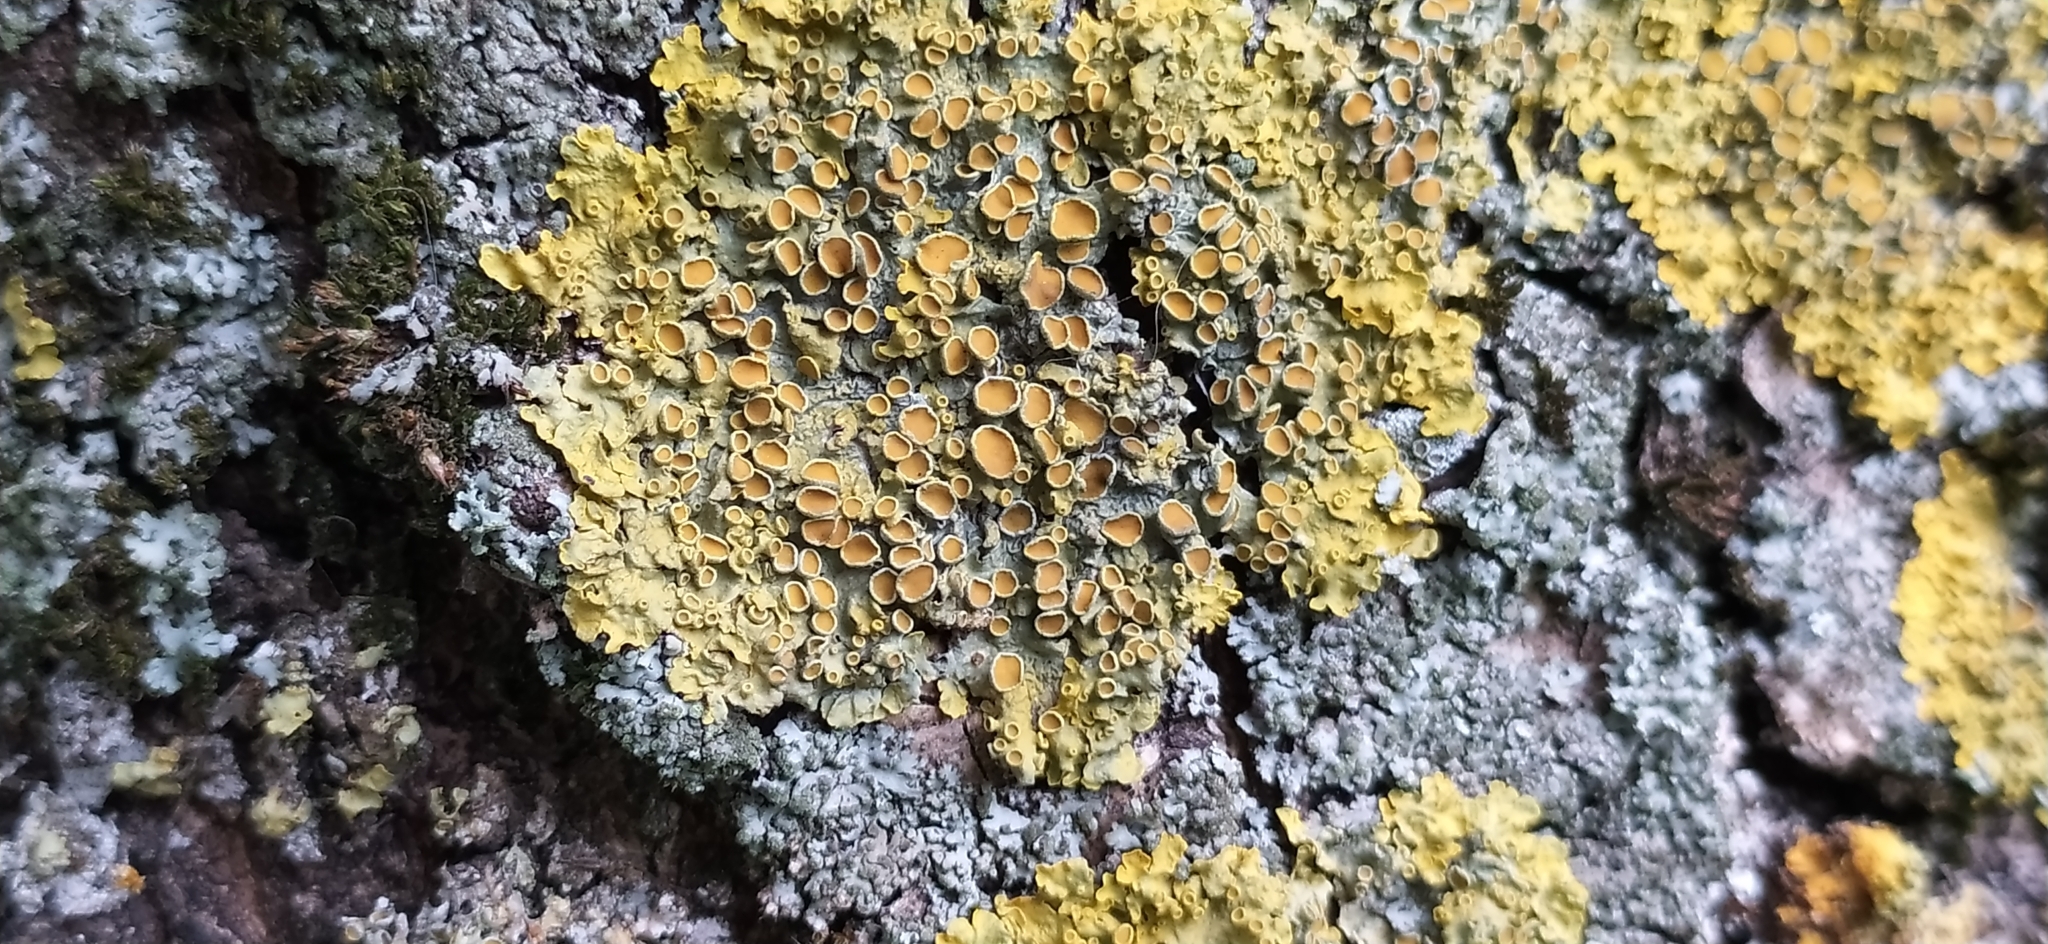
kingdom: Fungi
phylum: Ascomycota
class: Lecanoromycetes
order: Teloschistales
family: Teloschistaceae
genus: Xanthoria
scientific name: Xanthoria parietina
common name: Common orange lichen
